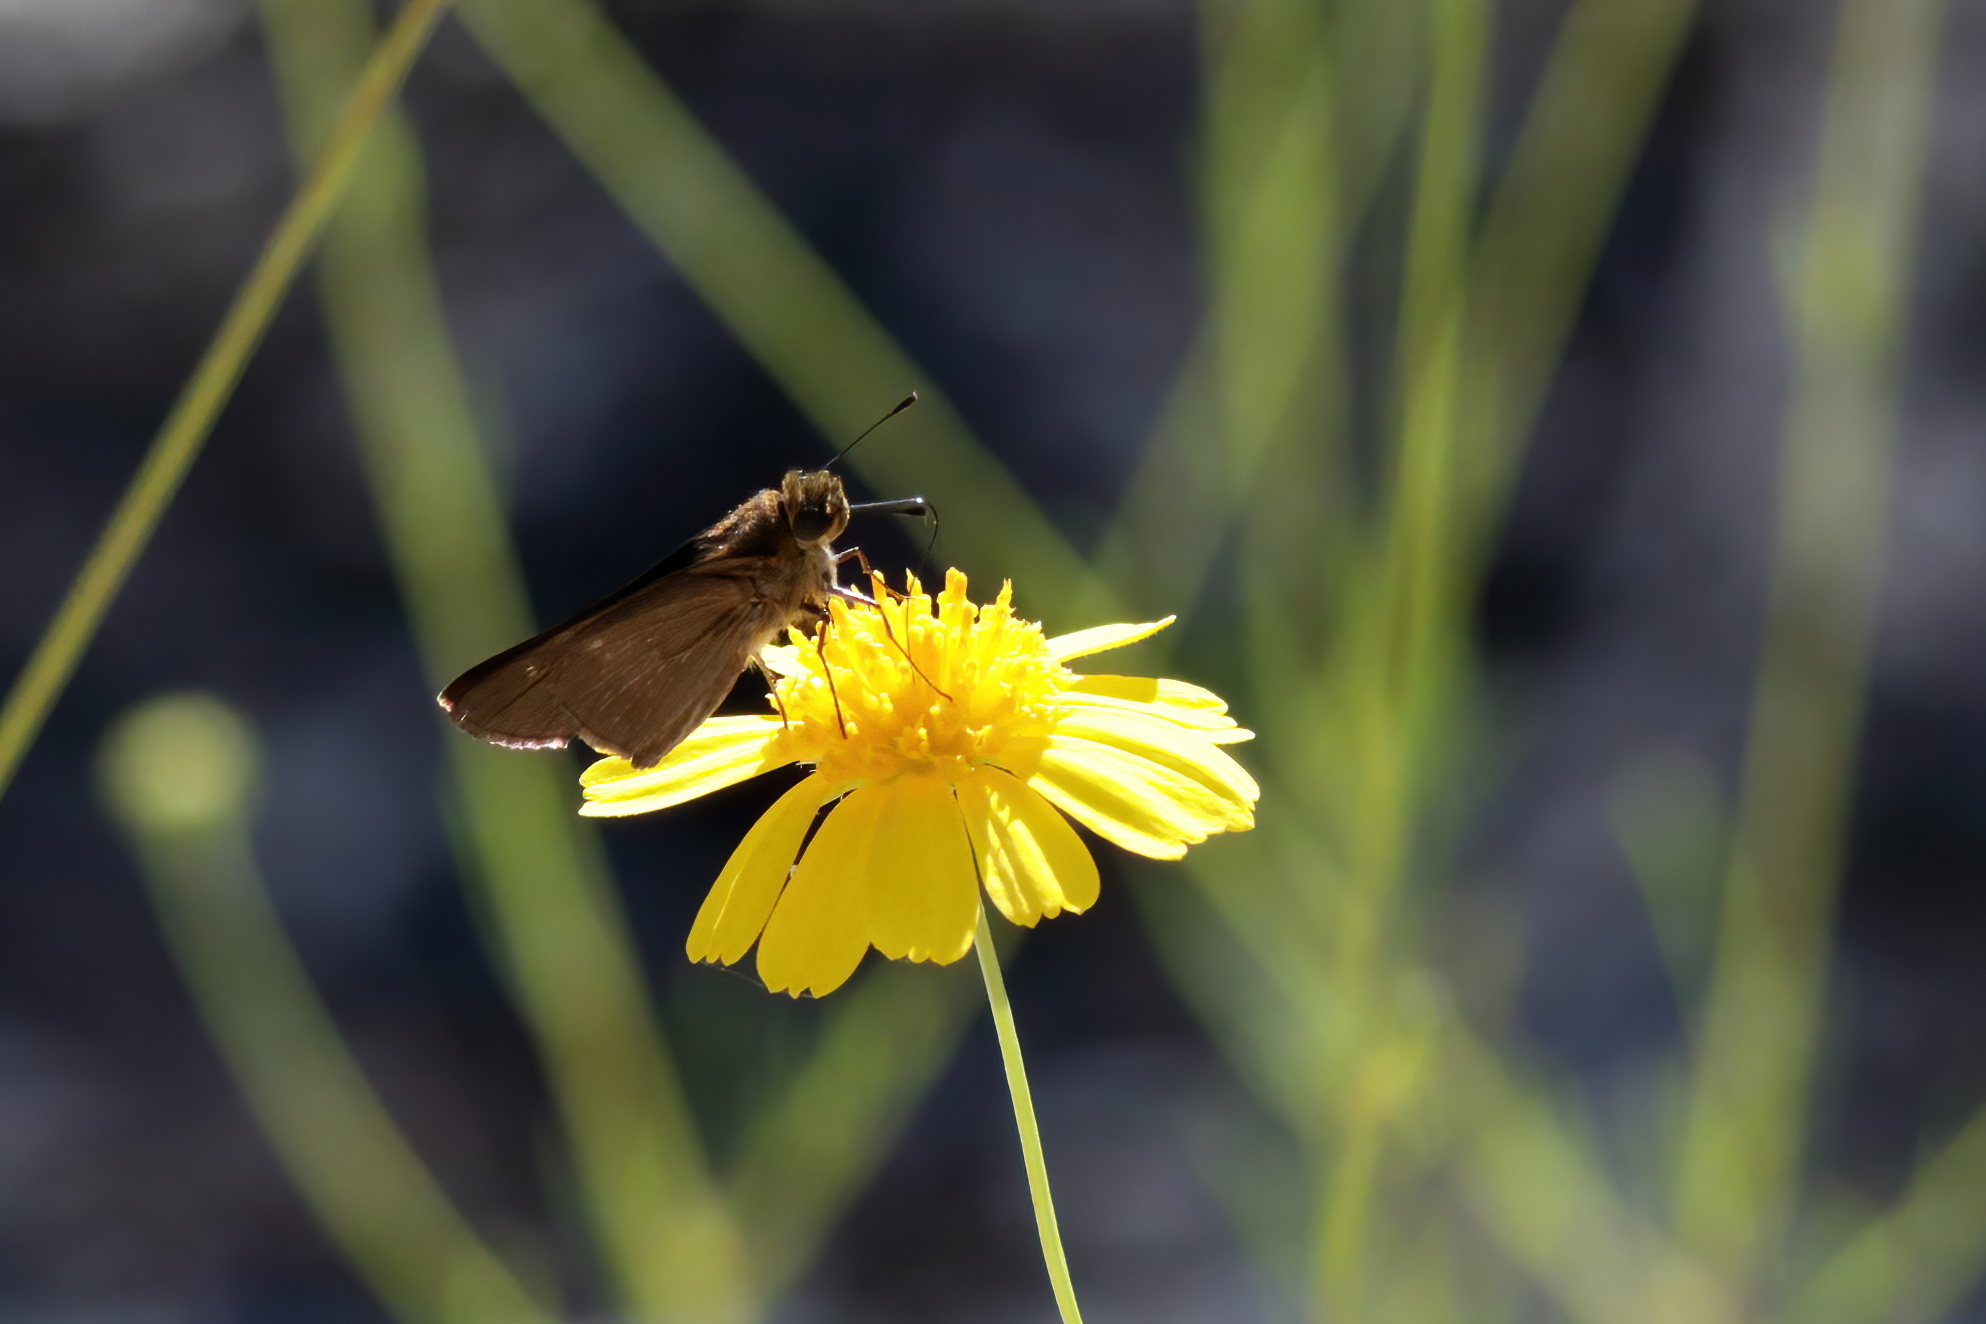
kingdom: Animalia
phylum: Arthropoda
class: Insecta
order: Lepidoptera
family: Hesperiidae
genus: Panoquina
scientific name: Panoquina ocola
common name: Ocola skipper
